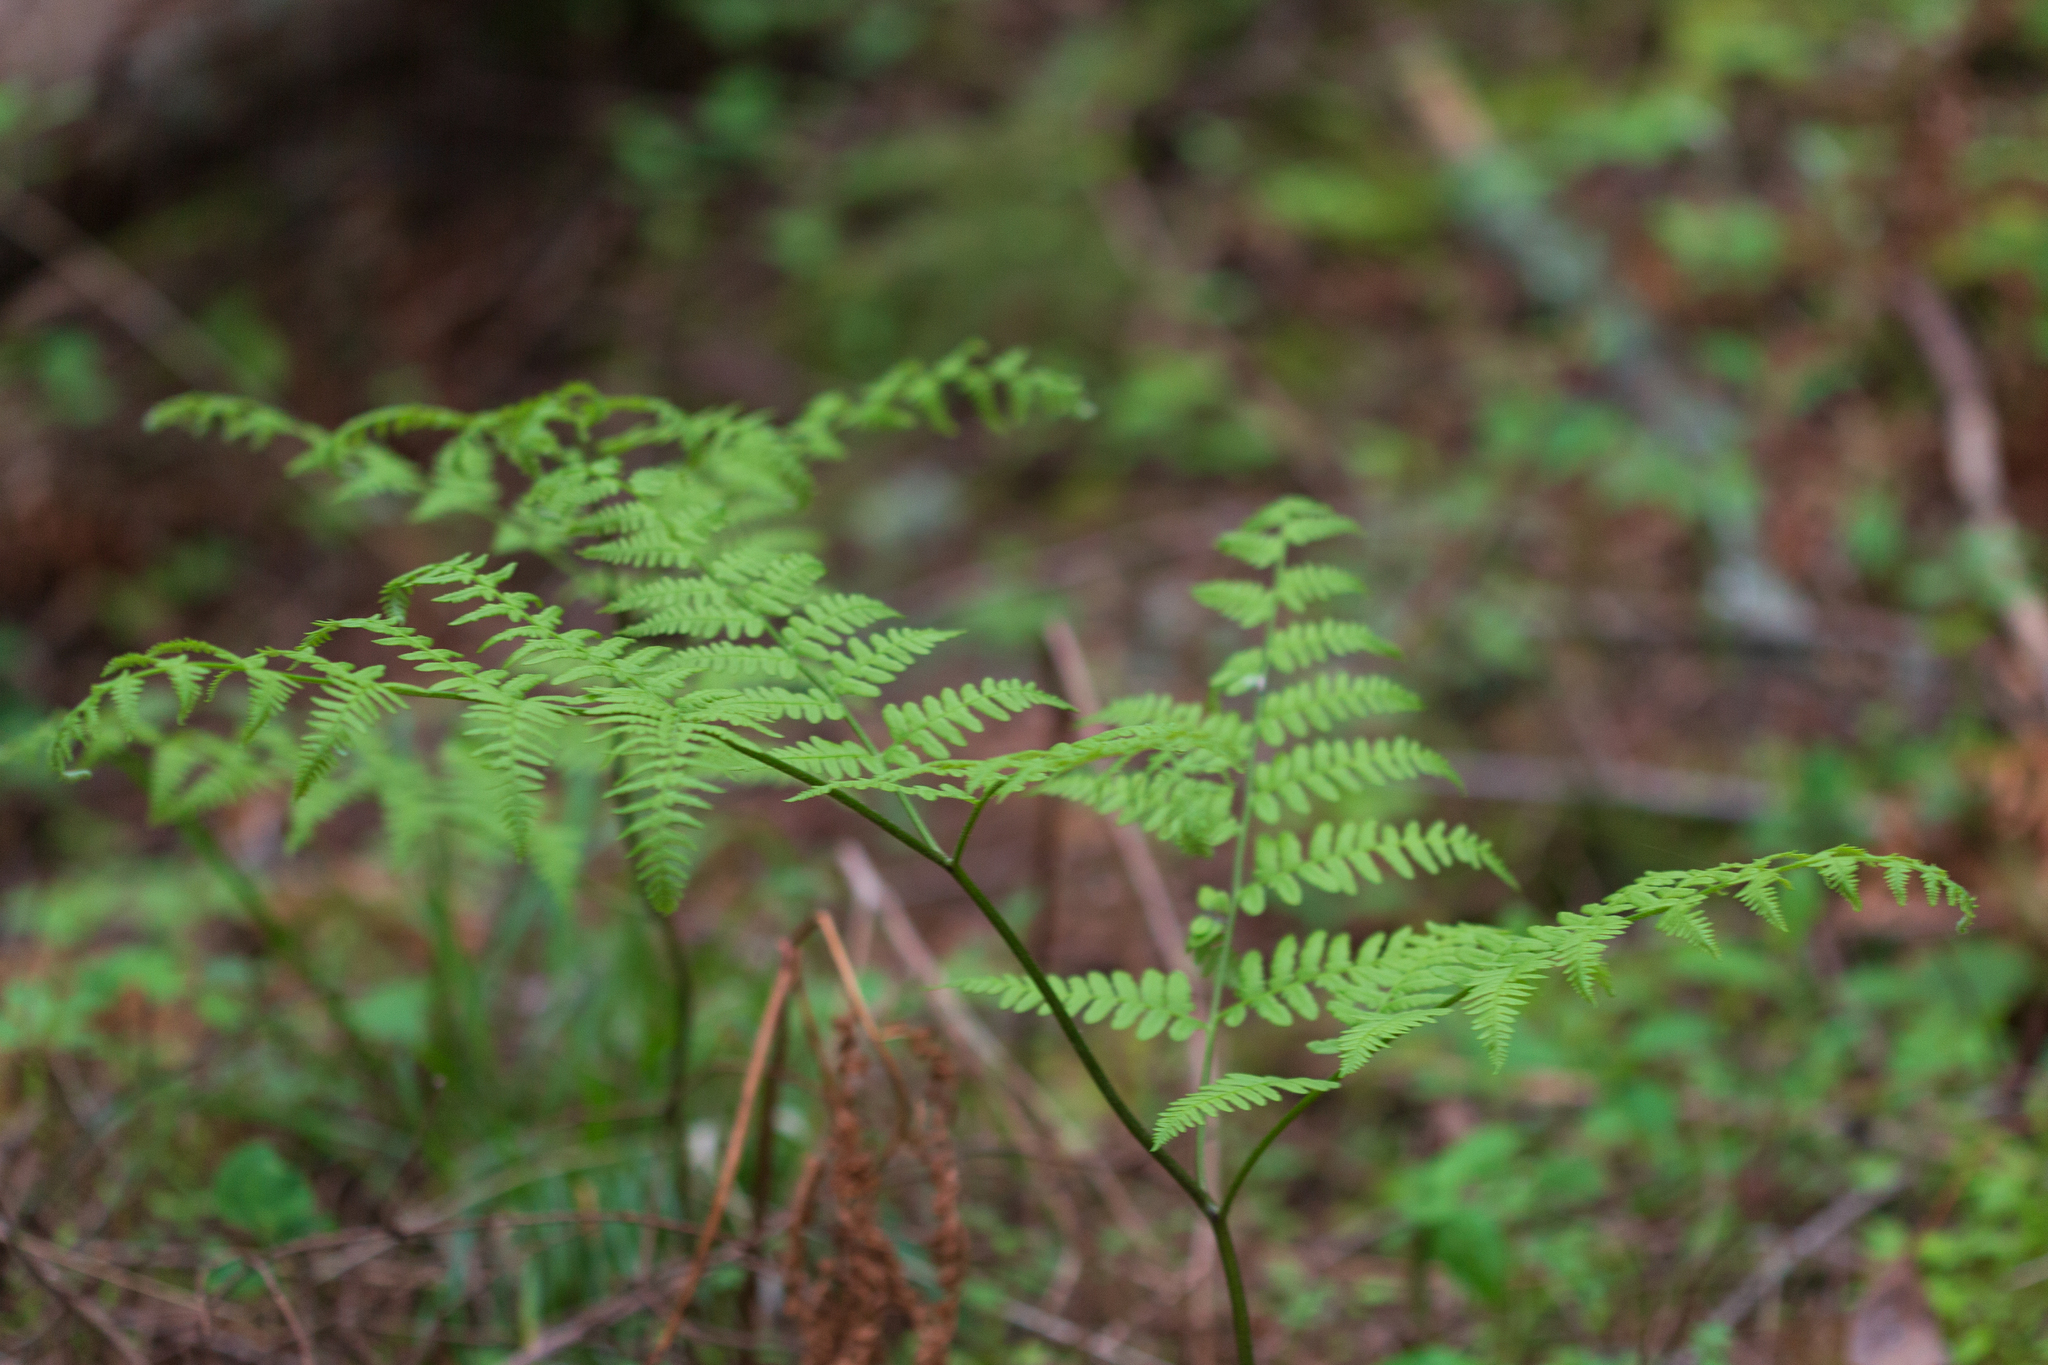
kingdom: Plantae
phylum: Tracheophyta
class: Polypodiopsida
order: Polypodiales
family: Dennstaedtiaceae
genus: Pteridium
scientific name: Pteridium aquilinum
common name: Bracken
